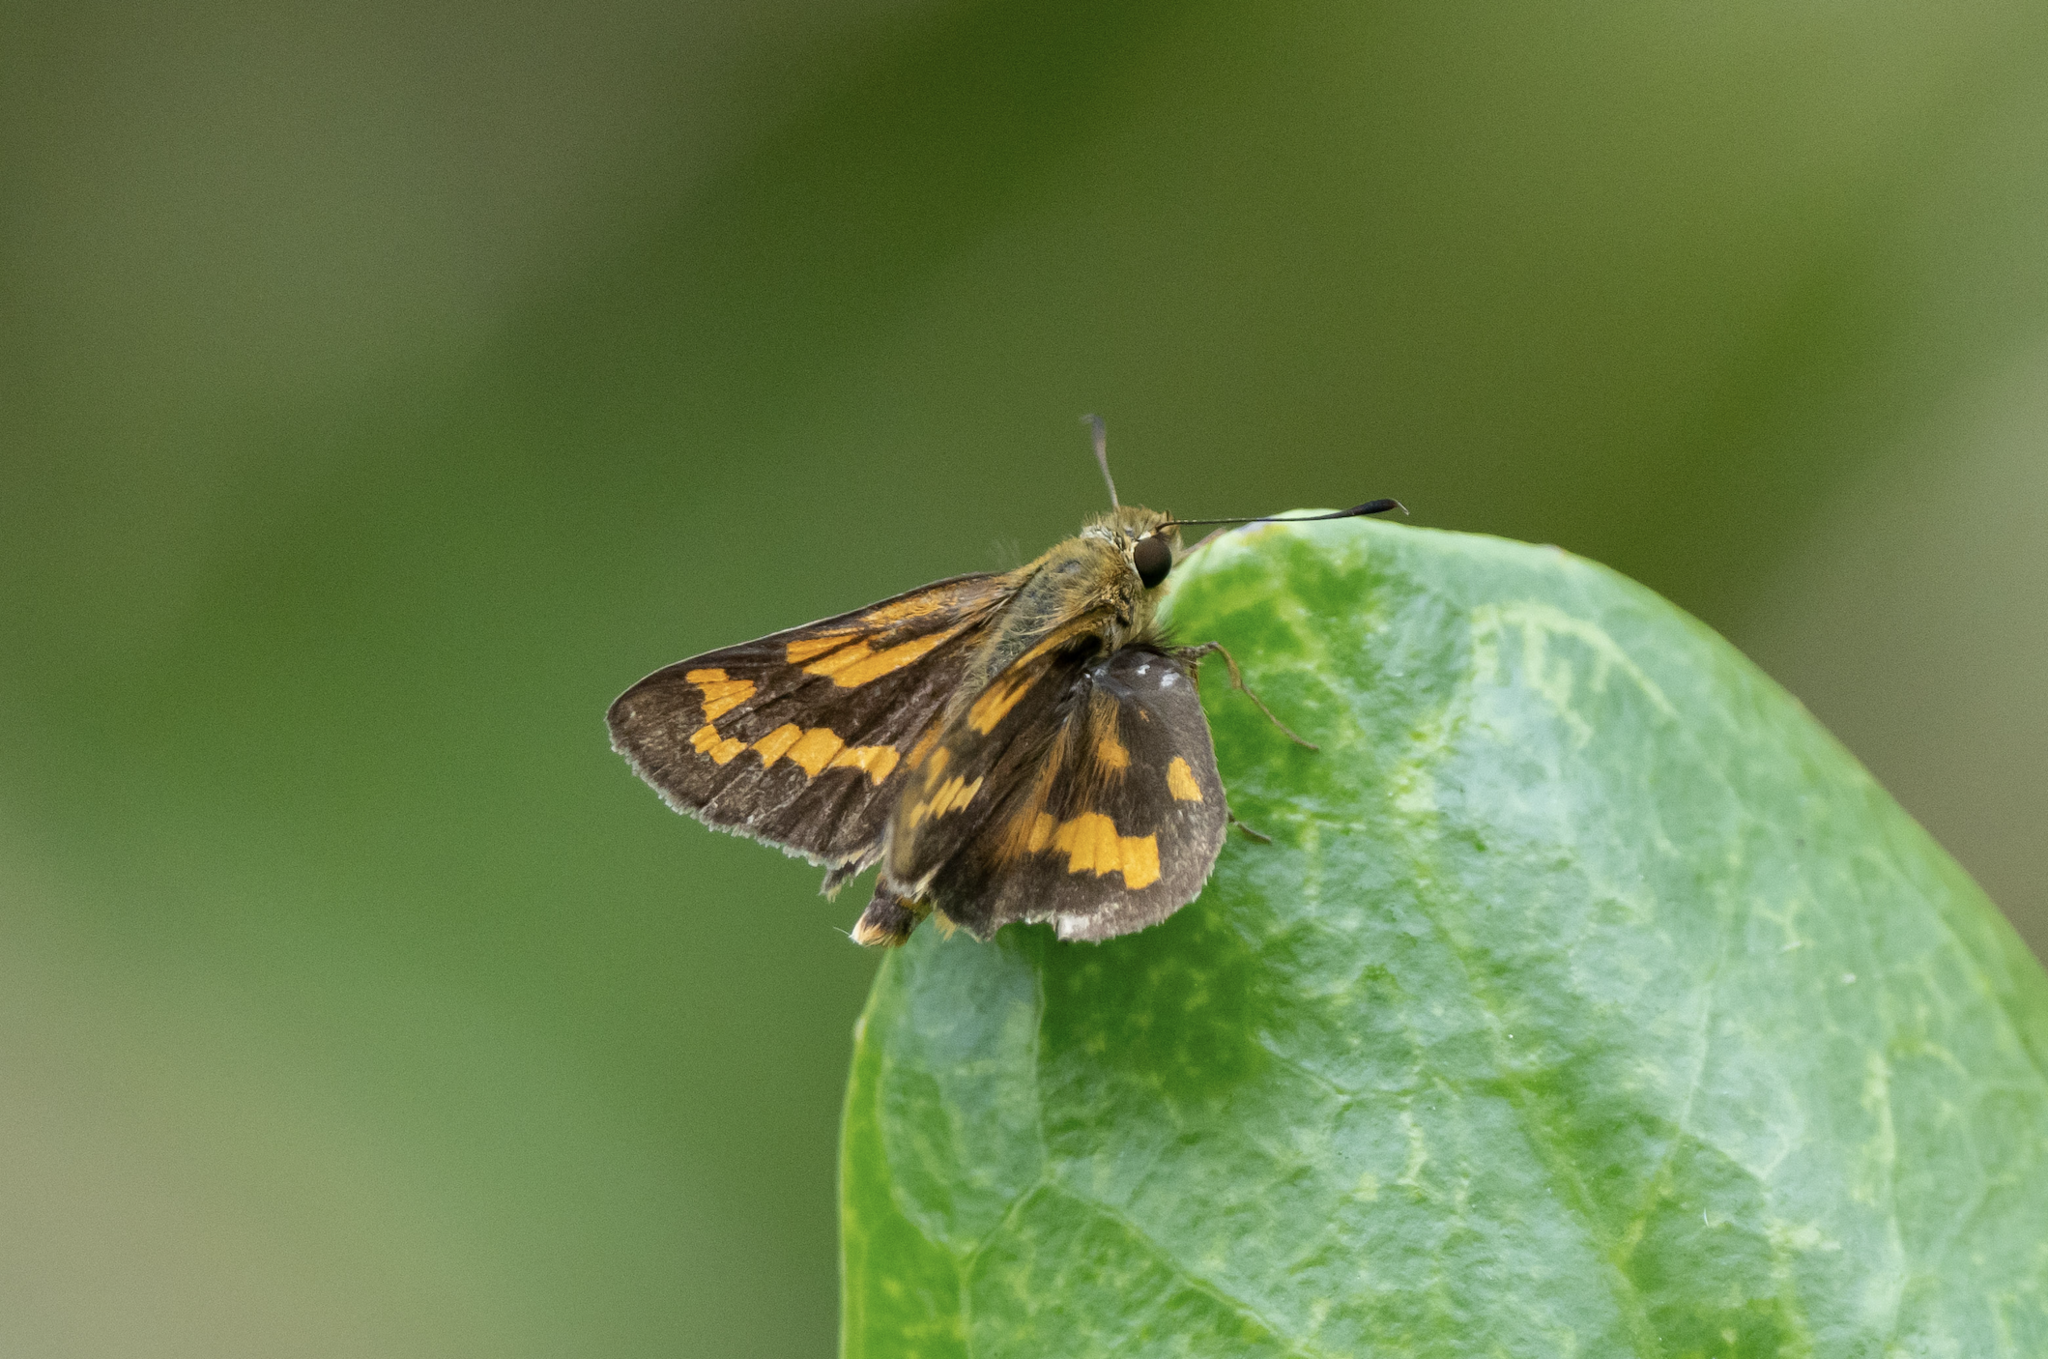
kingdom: Animalia
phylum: Arthropoda
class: Insecta
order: Lepidoptera
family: Hesperiidae
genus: Potanthus
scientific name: Potanthus trachala
